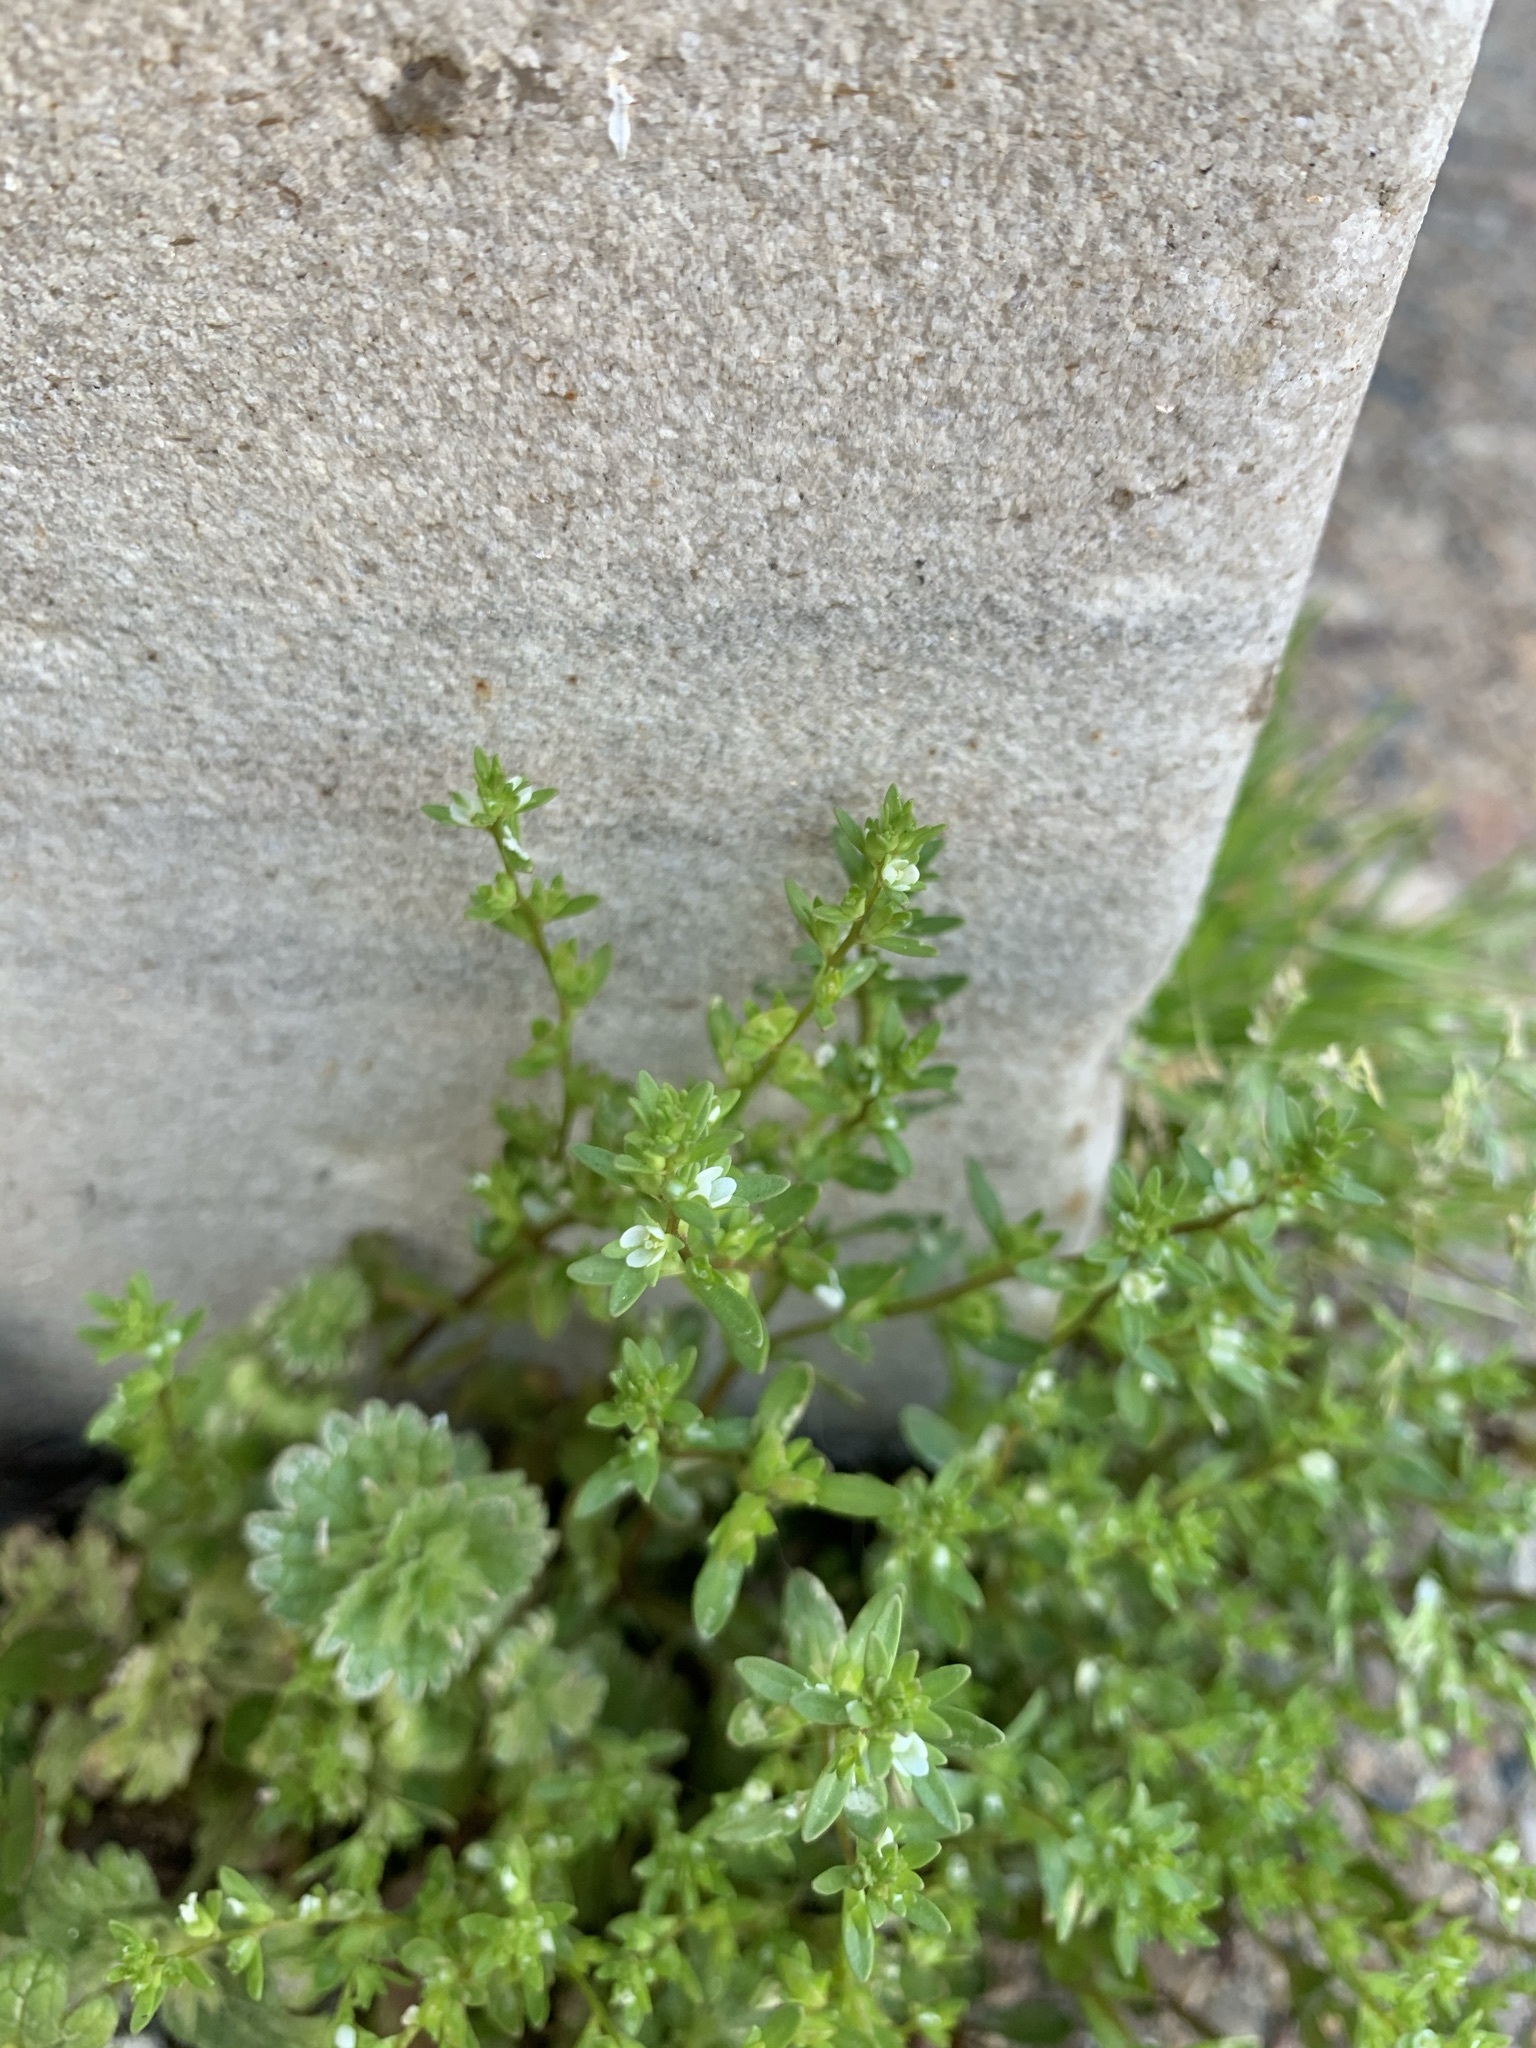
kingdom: Plantae
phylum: Tracheophyta
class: Magnoliopsida
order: Lamiales
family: Plantaginaceae
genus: Veronica
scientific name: Veronica peregrina
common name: Neckweed
